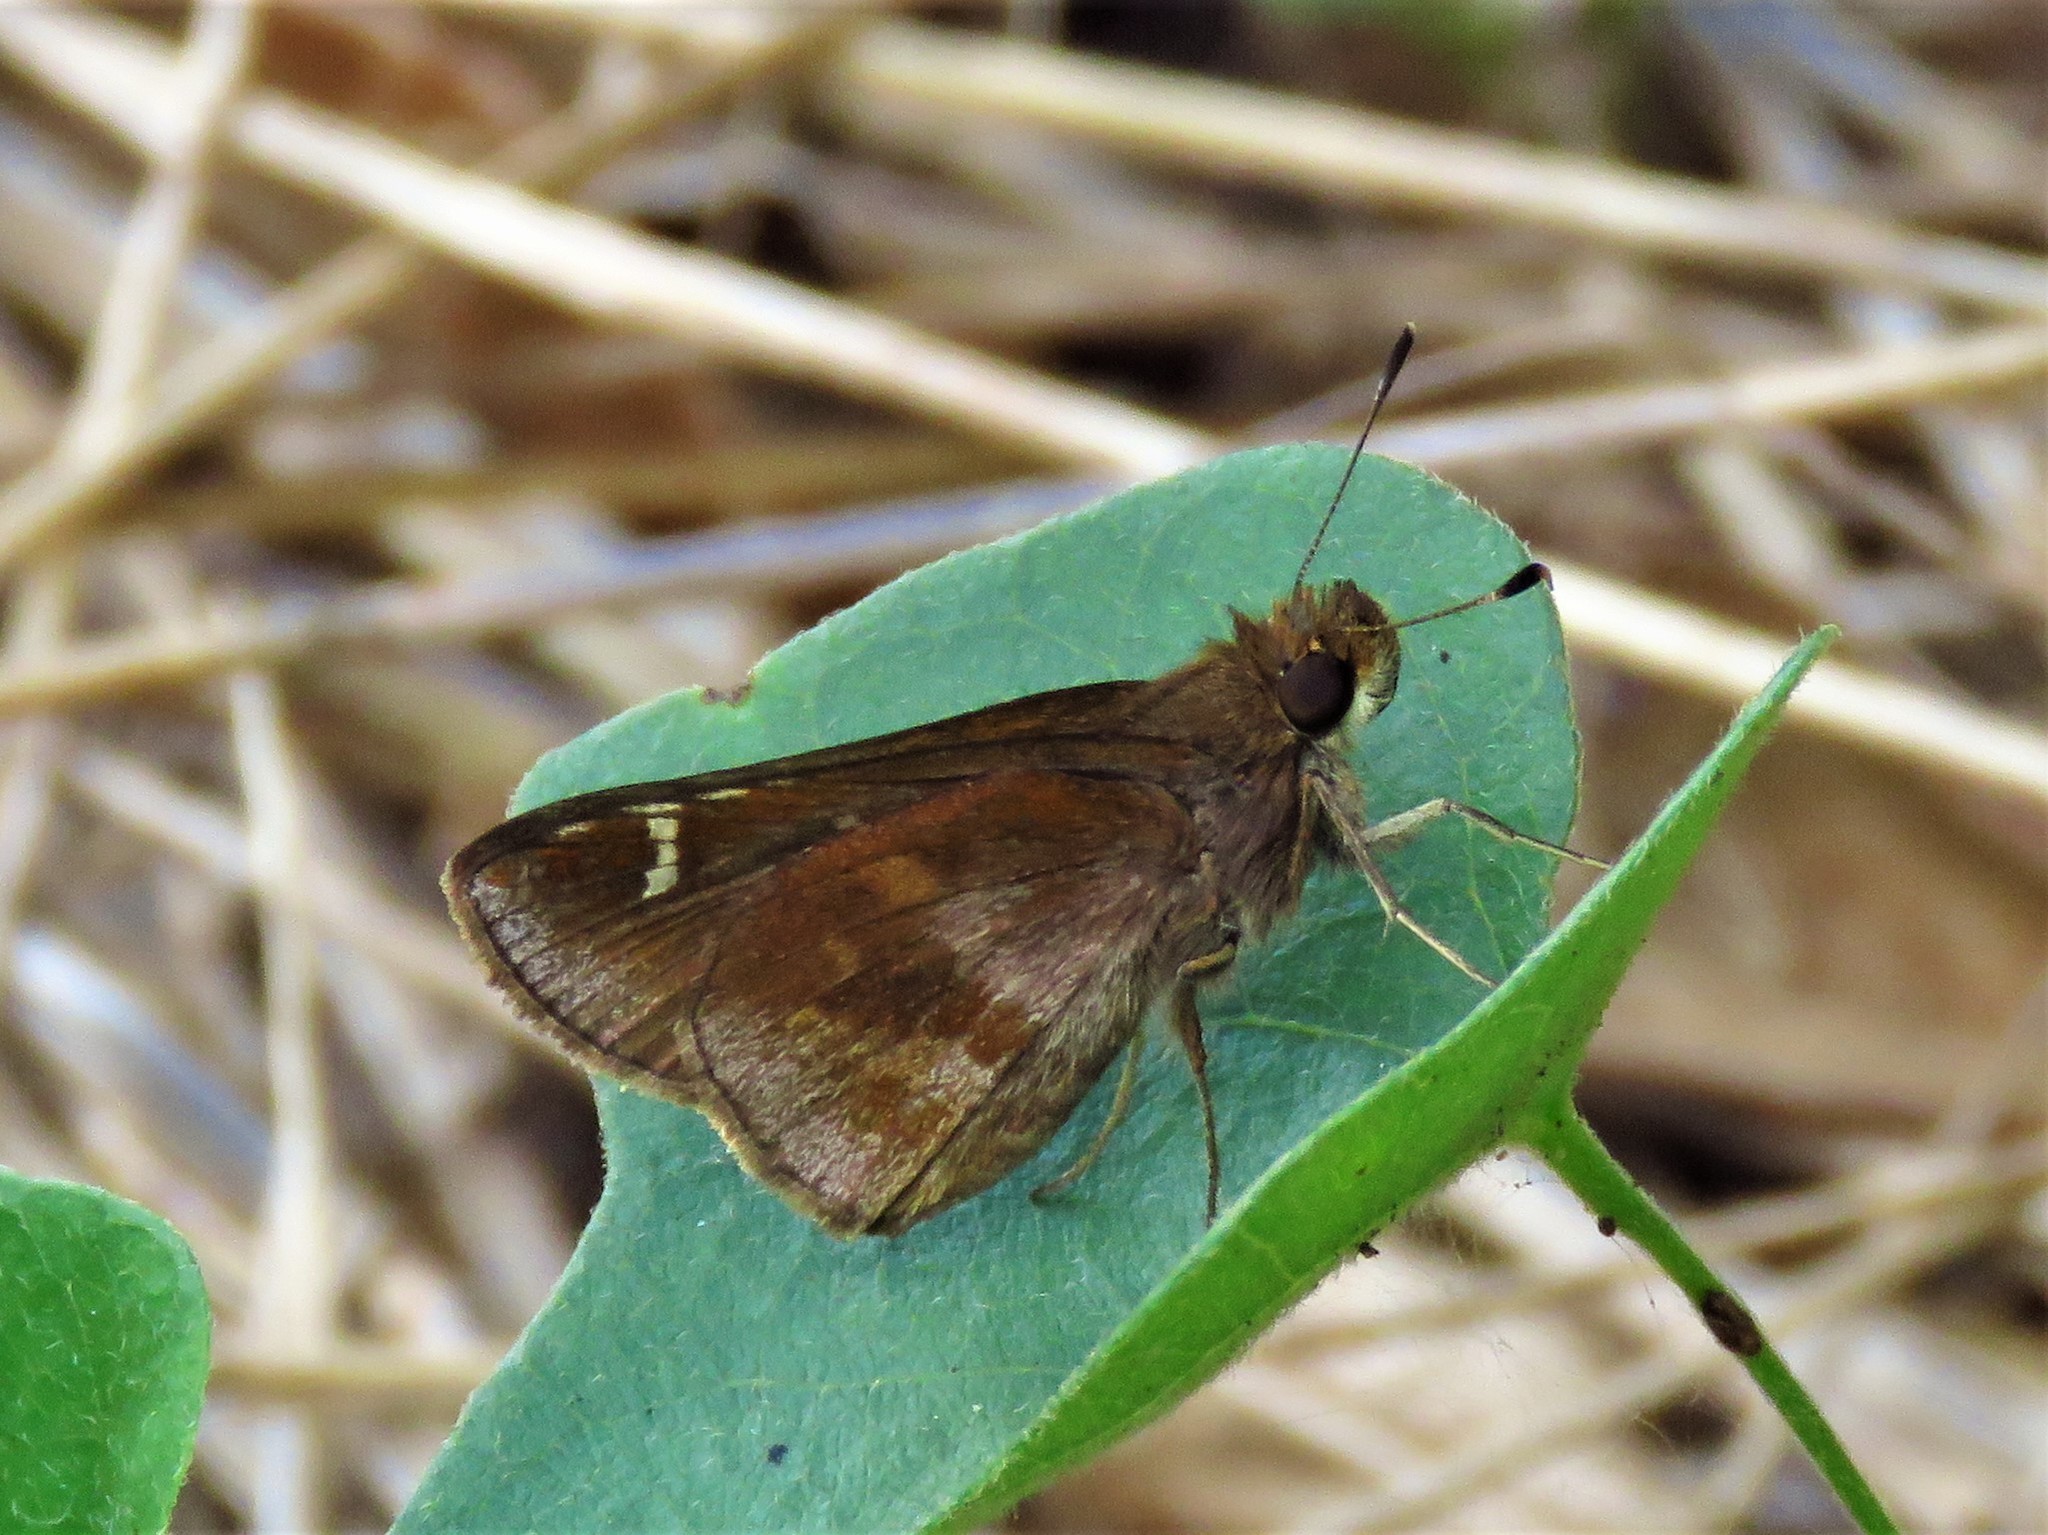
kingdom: Animalia
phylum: Arthropoda
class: Insecta
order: Lepidoptera
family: Hesperiidae
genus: Lerema
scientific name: Lerema accius
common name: Clouded skipper
